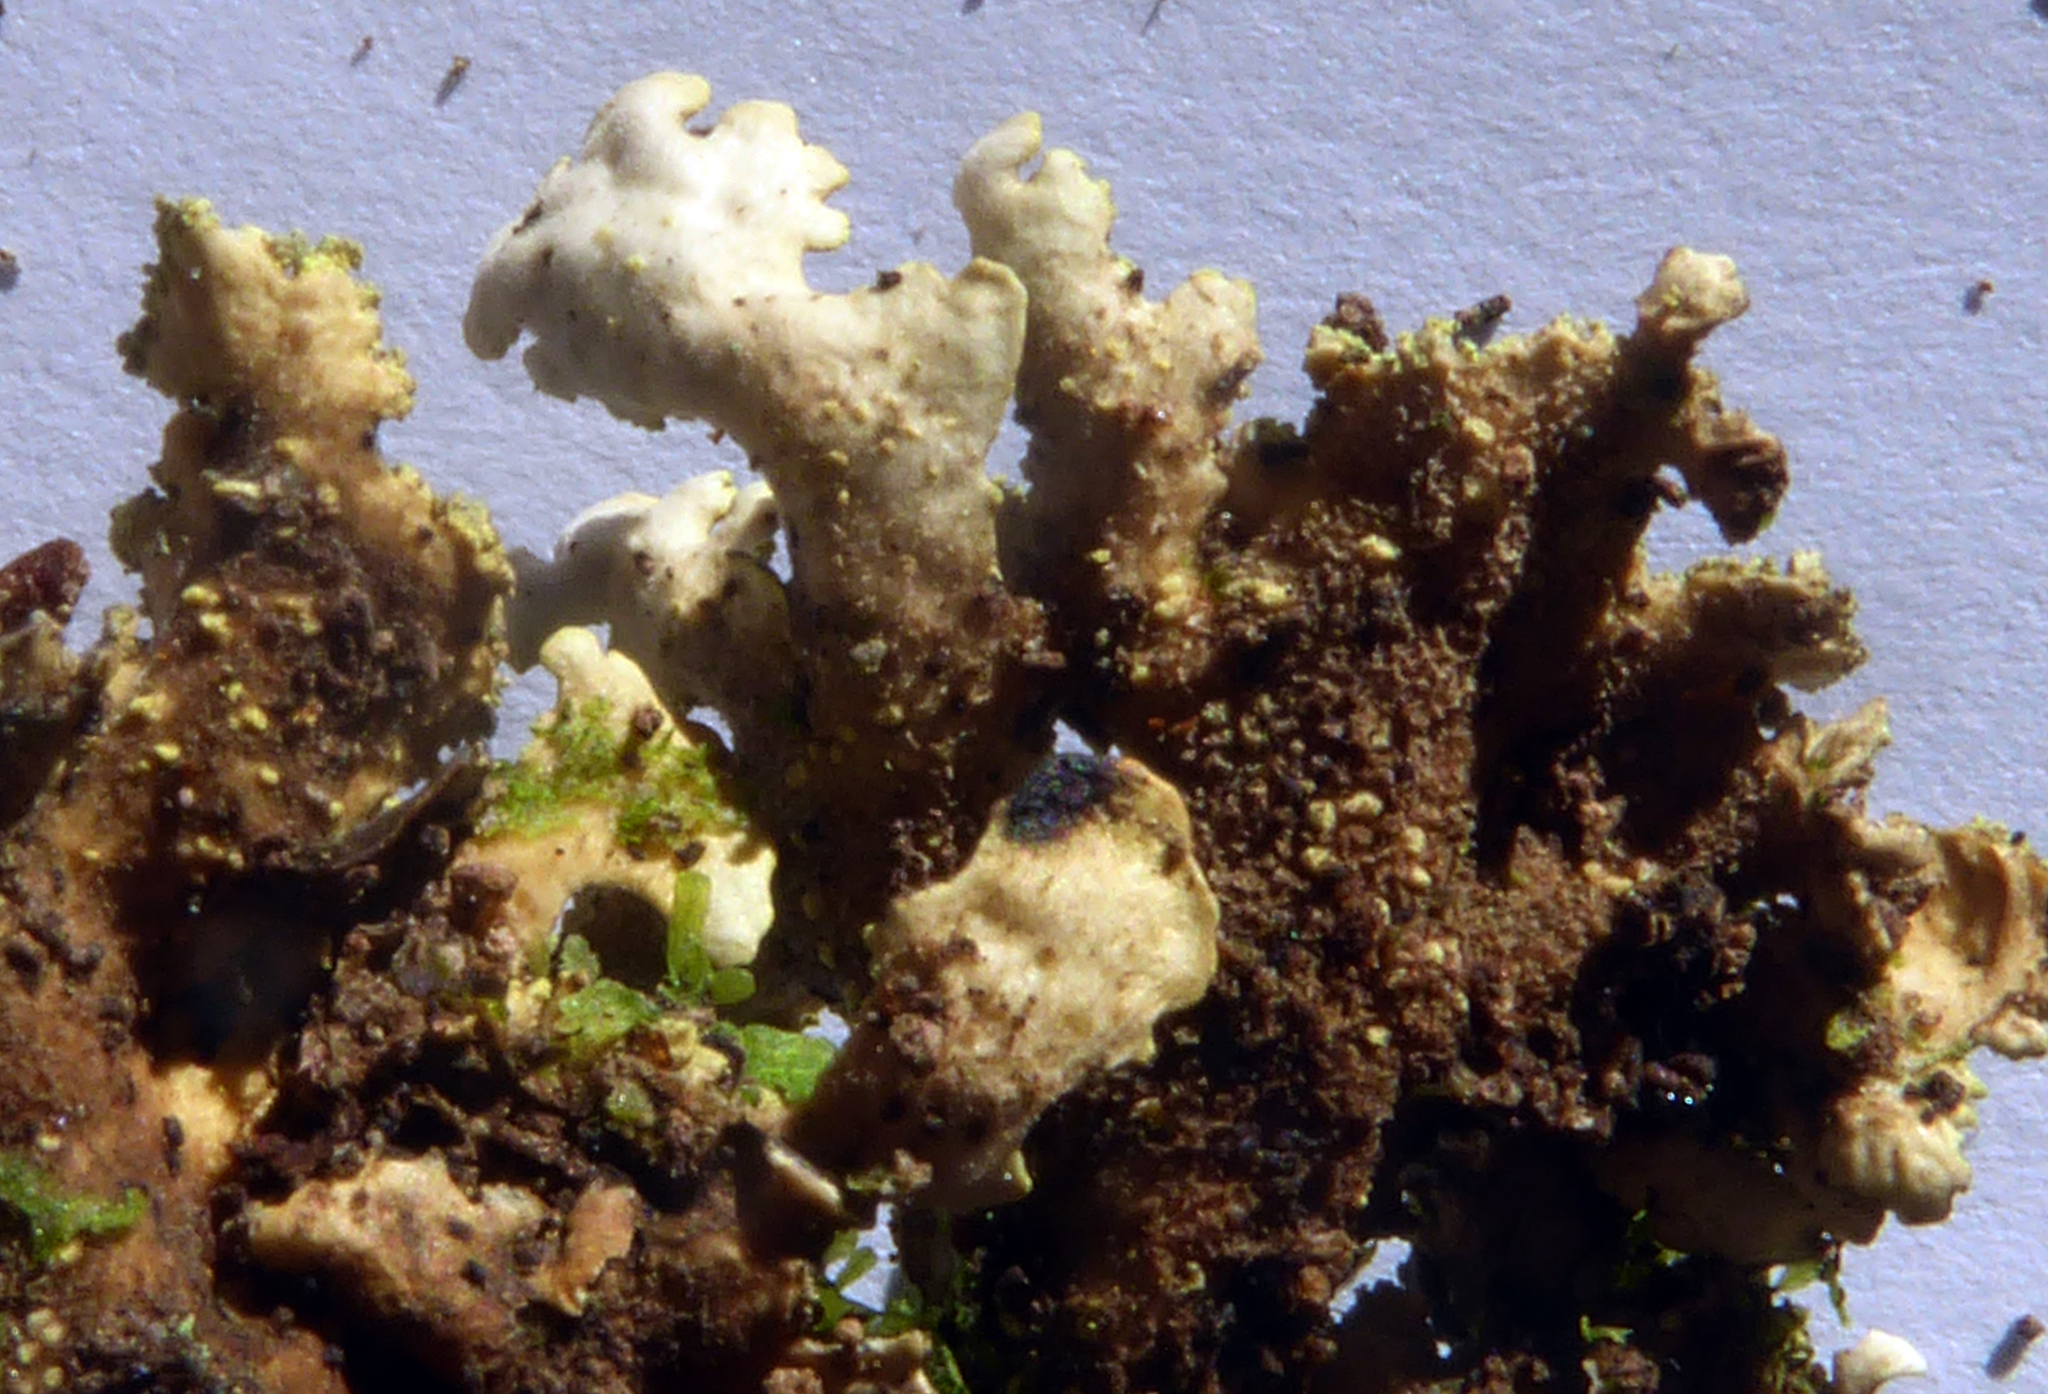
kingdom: Fungi
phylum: Ascomycota
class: Lecanoromycetes
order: Peltigerales
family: Lobariaceae
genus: Pseudocyphellaria
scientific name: Pseudocyphellaria crocata
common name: Golden specklebelly
